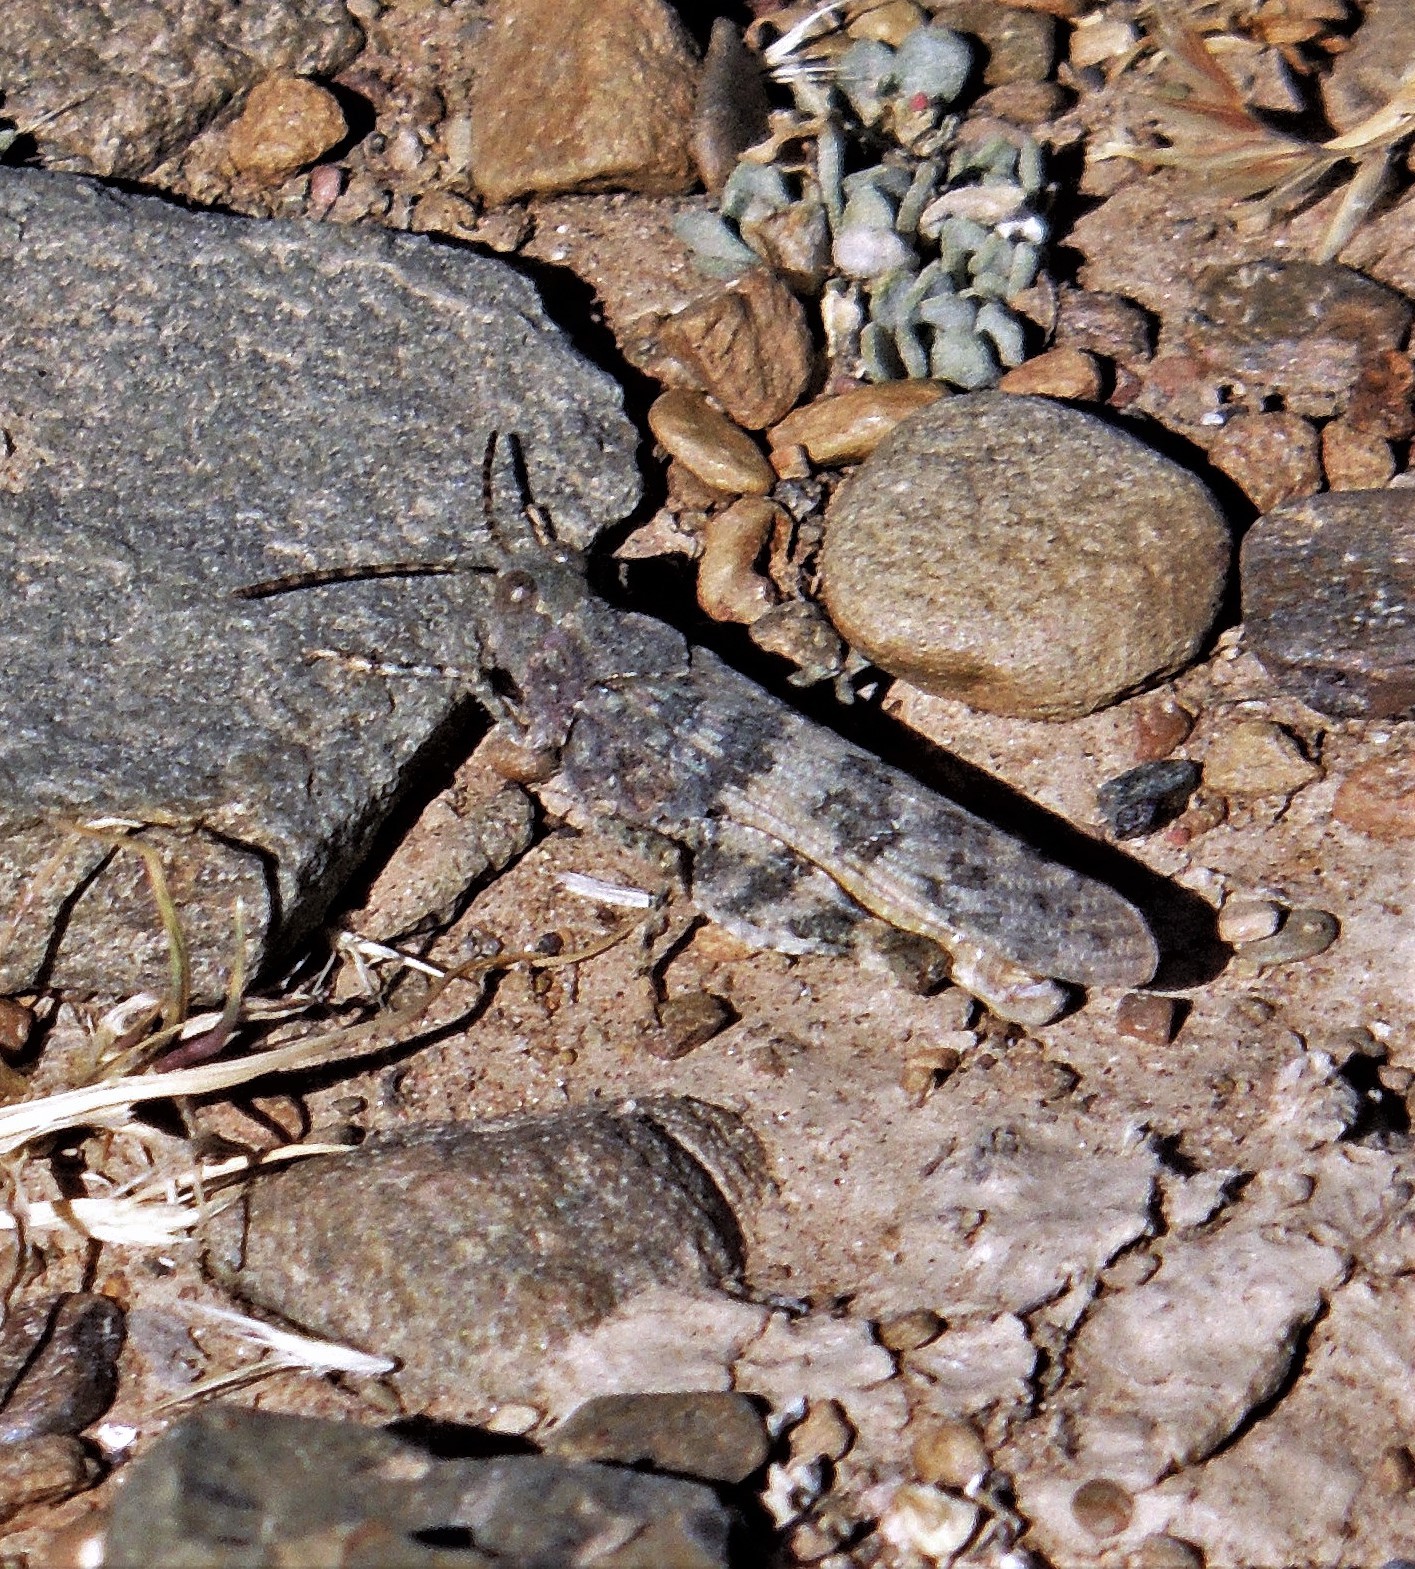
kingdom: Animalia
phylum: Arthropoda
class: Insecta
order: Orthoptera
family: Acrididae
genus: Trimerotropis
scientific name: Trimerotropis pallidipennis
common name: Pallid-winged grasshopper
